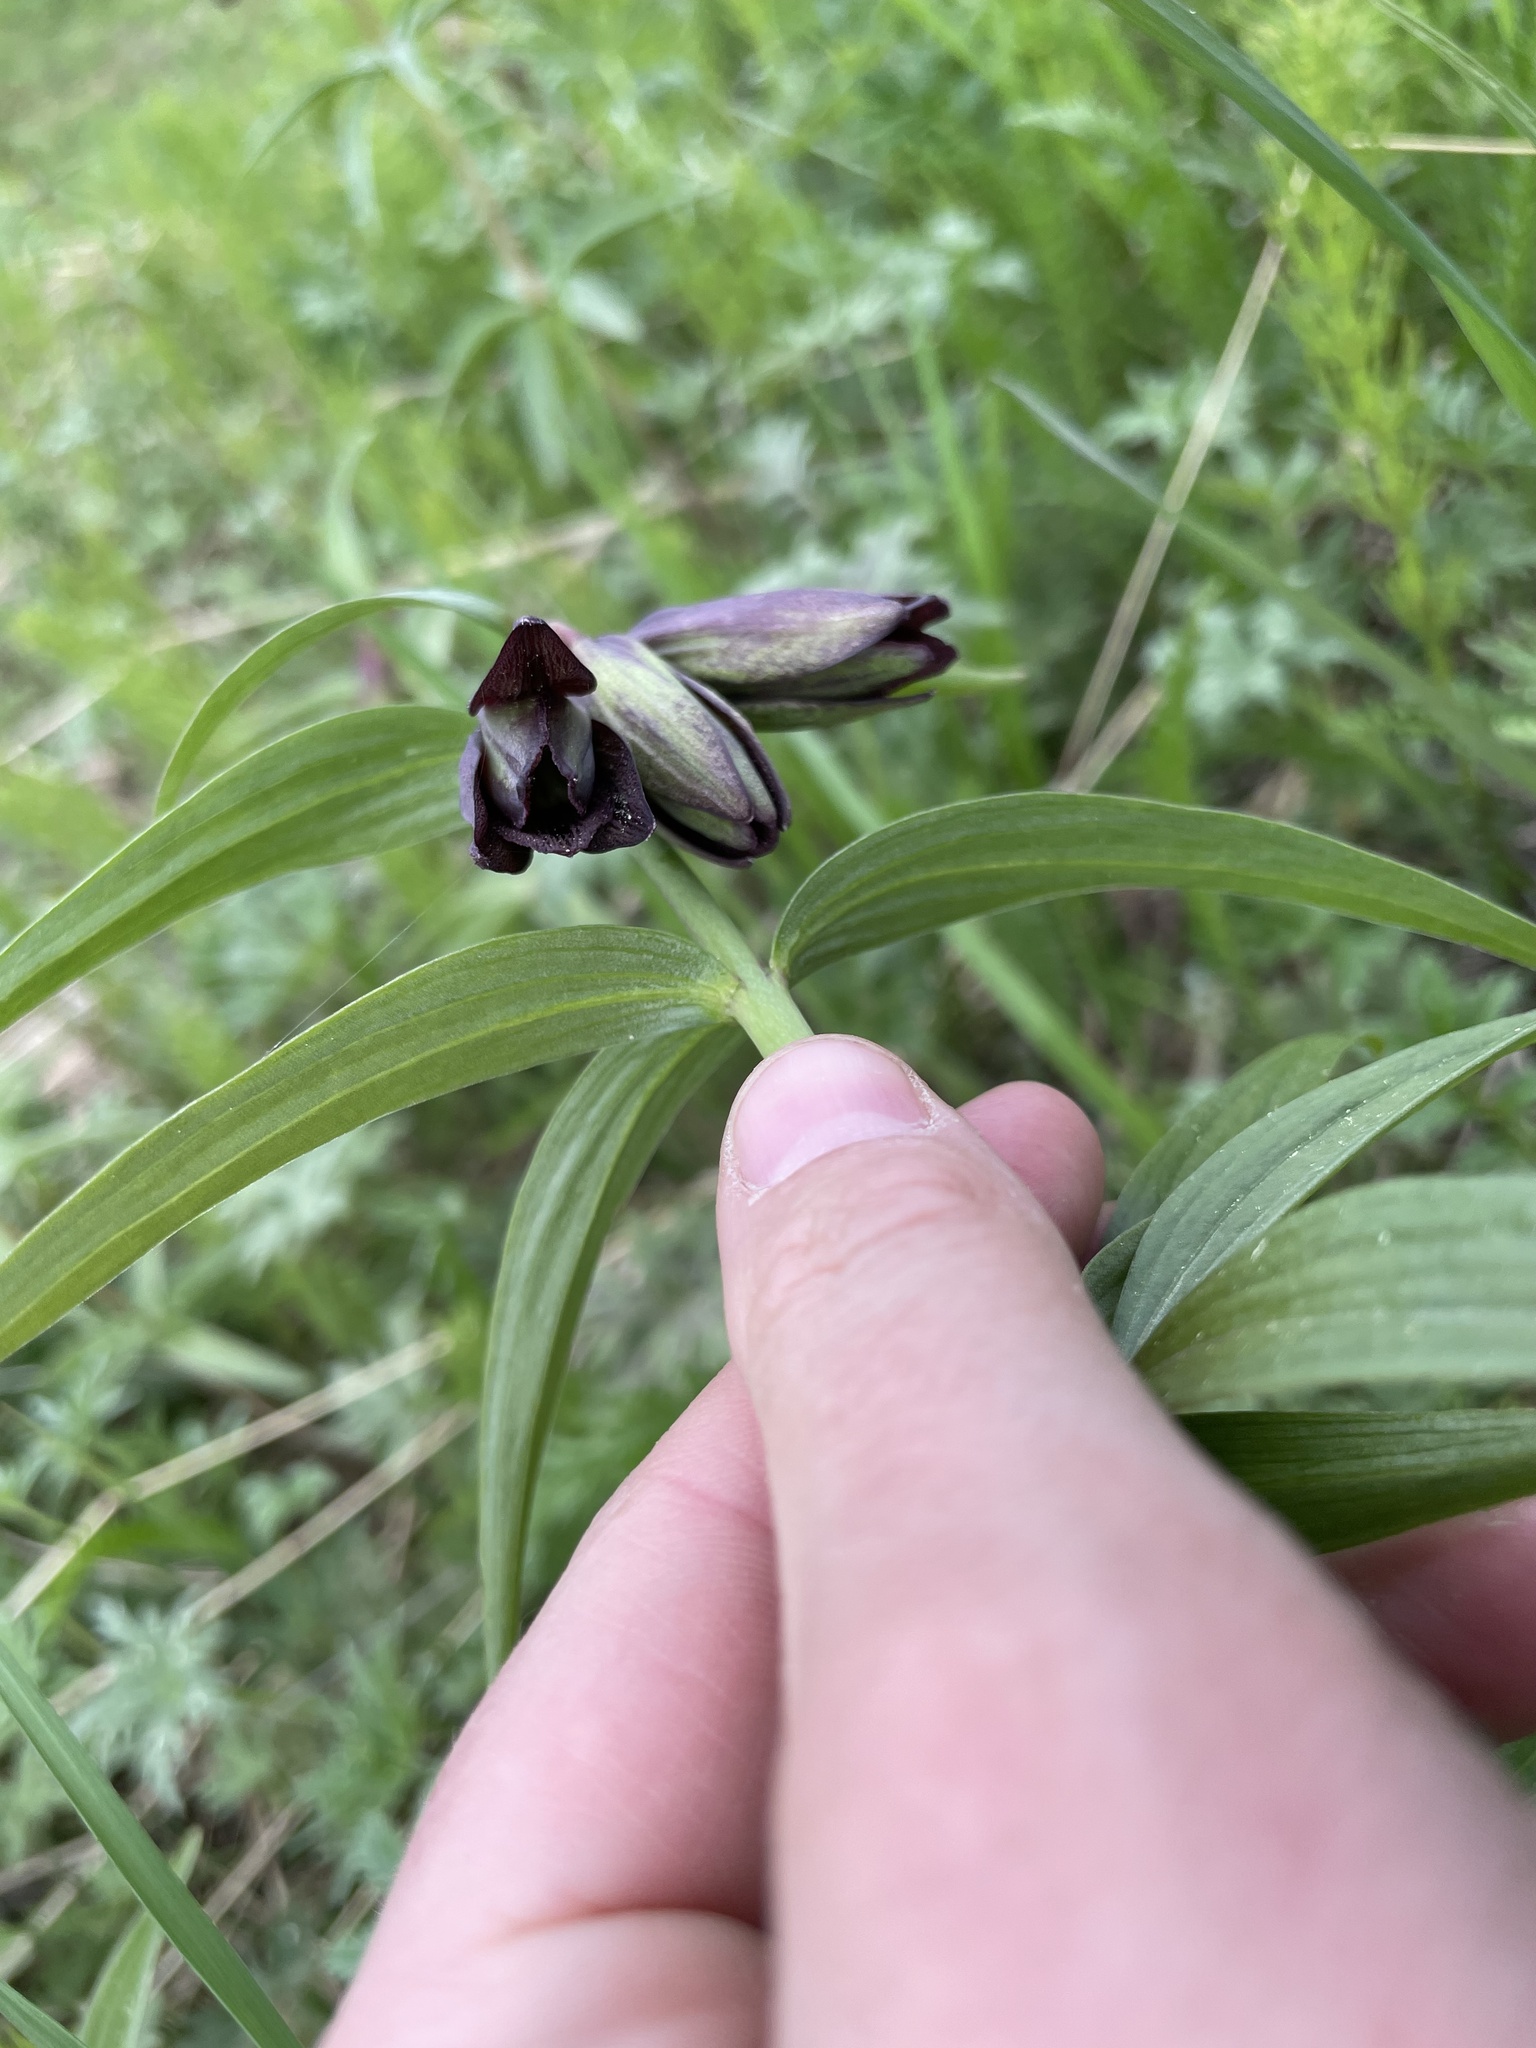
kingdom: Plantae
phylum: Tracheophyta
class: Liliopsida
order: Liliales
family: Liliaceae
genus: Fritillaria
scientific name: Fritillaria camschatcensis
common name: Kamchatka fritillary
